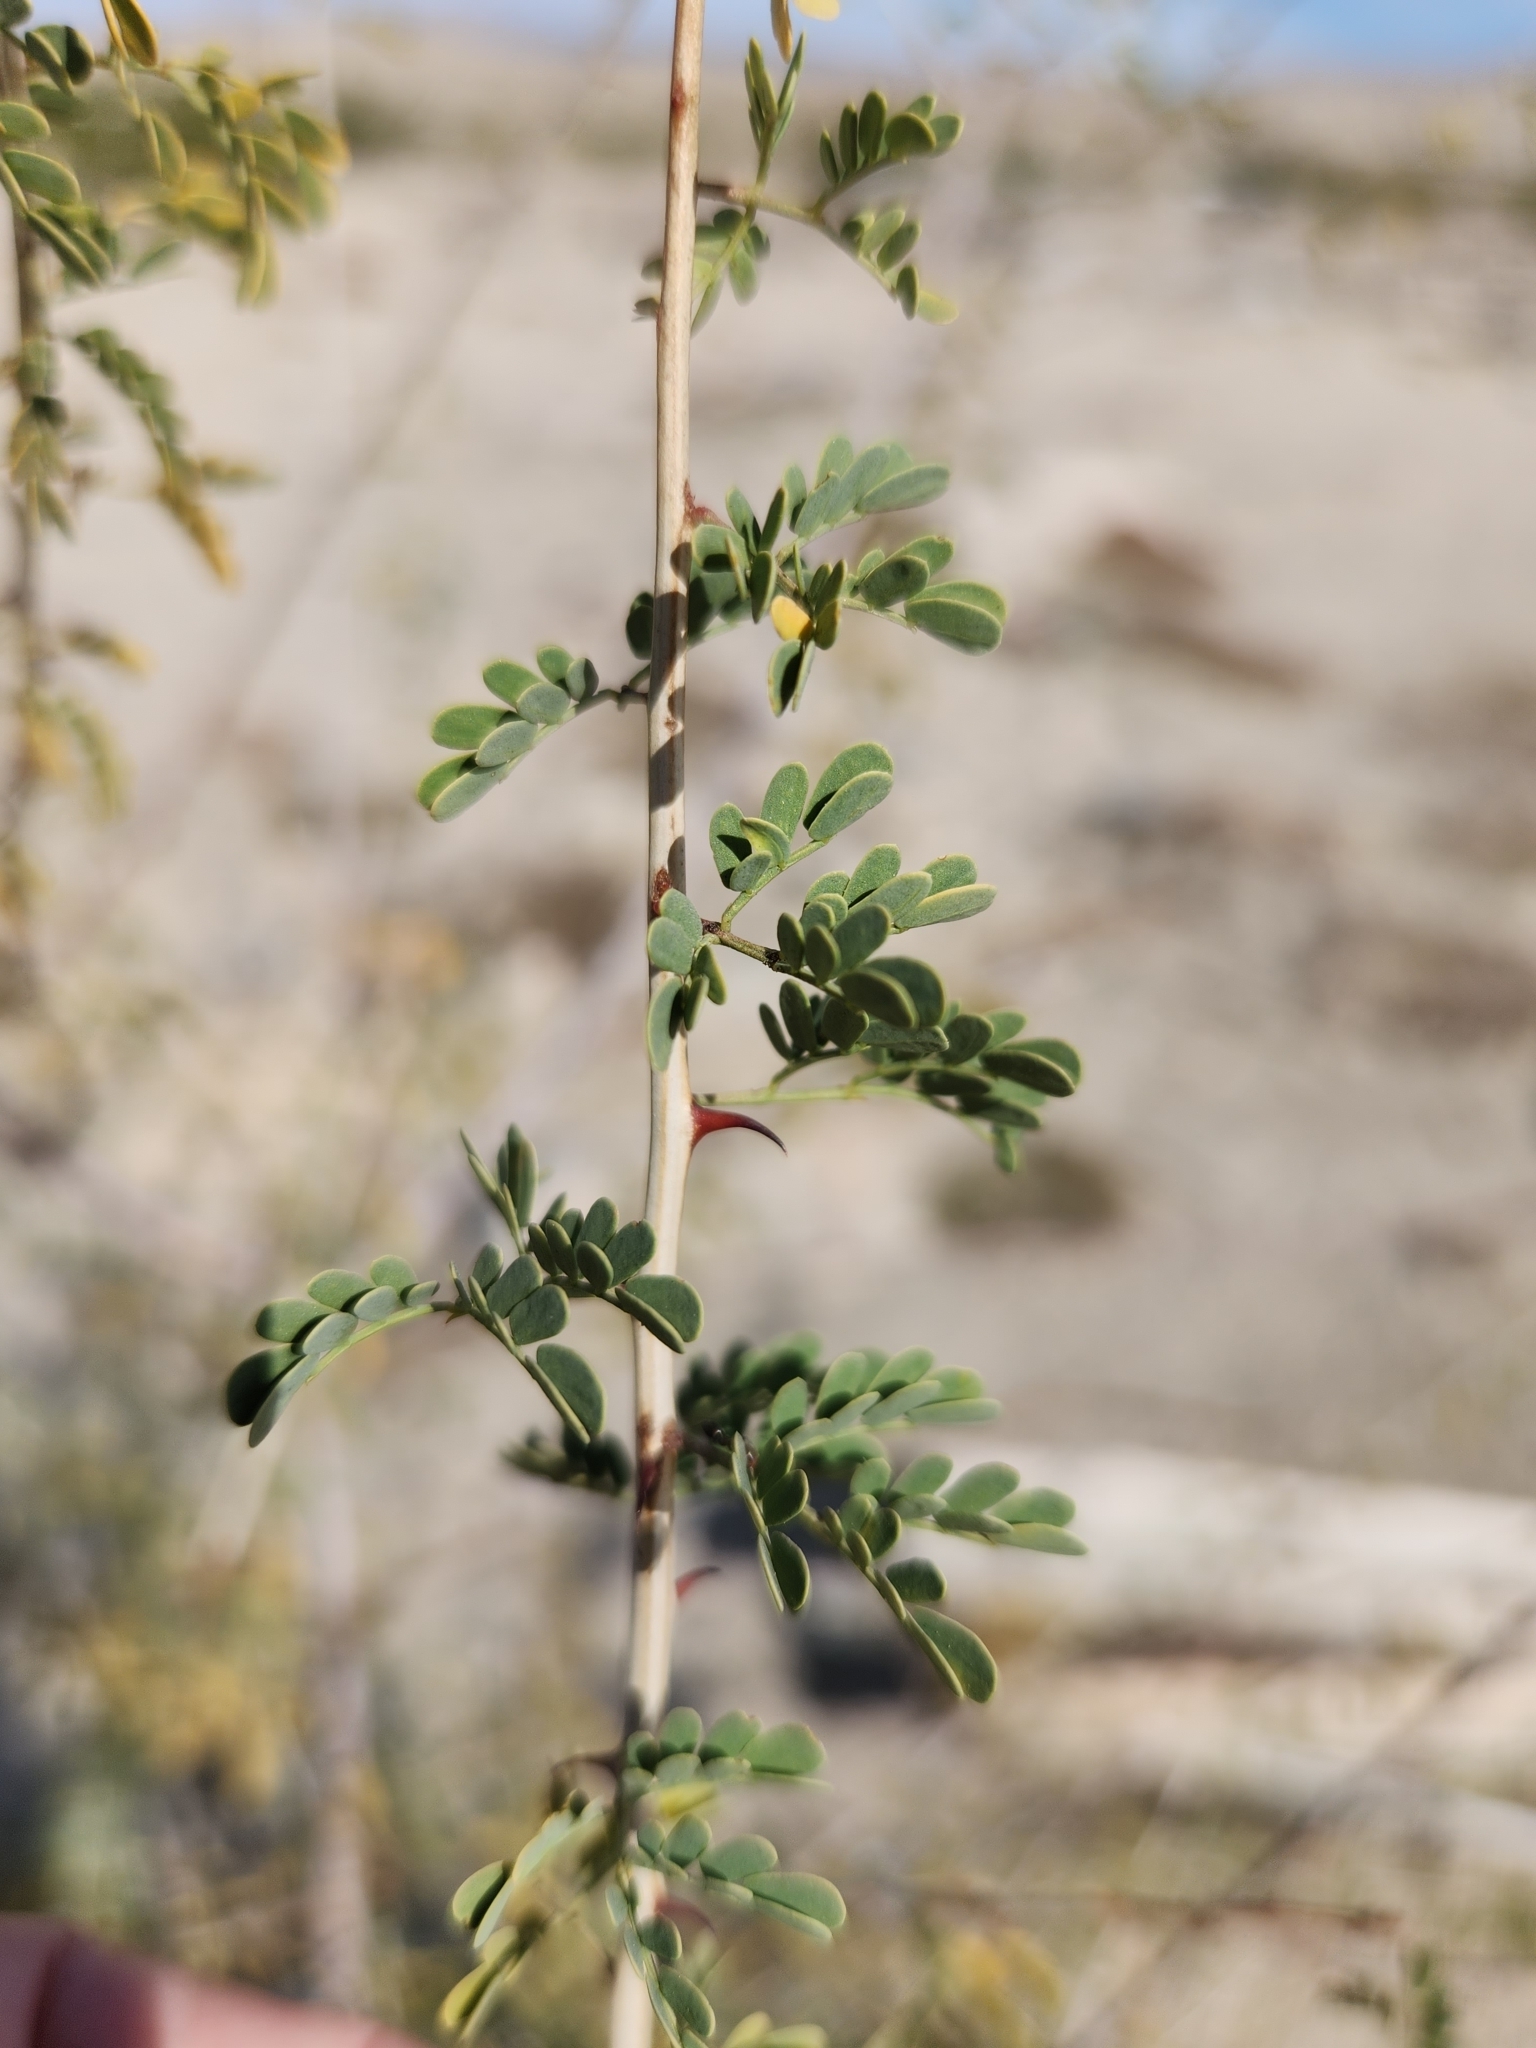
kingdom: Plantae
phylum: Tracheophyta
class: Magnoliopsida
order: Fabales
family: Fabaceae
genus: Senegalia
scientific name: Senegalia greggii
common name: Texas-mimosa
